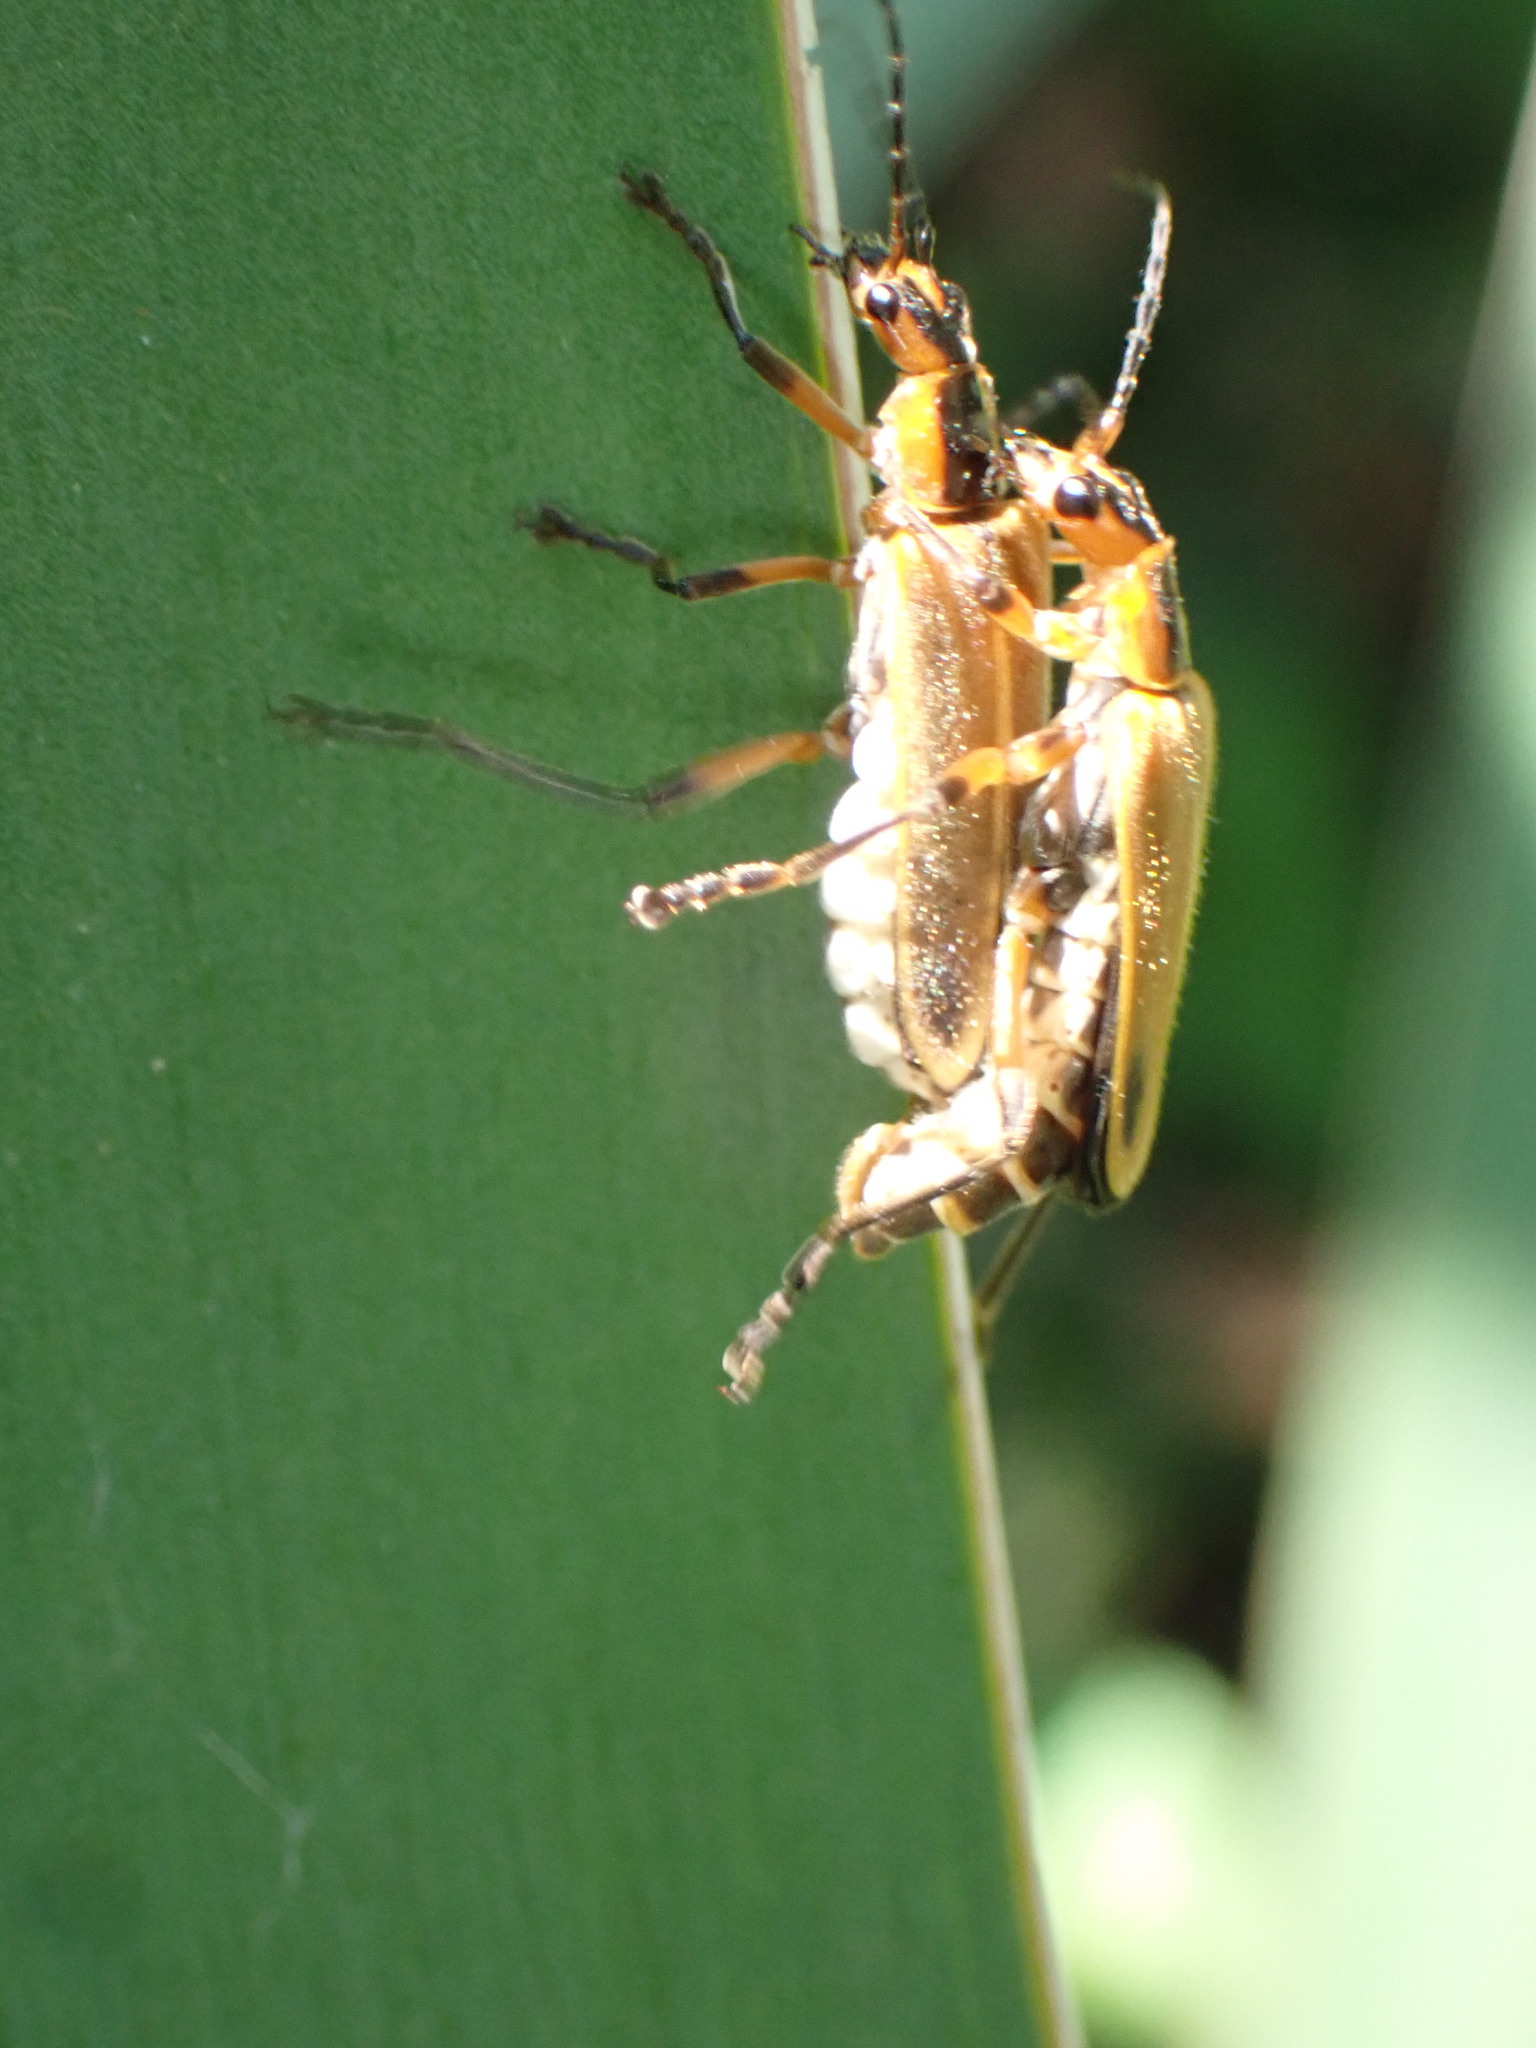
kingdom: Animalia
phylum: Arthropoda
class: Insecta
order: Coleoptera
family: Cantharidae
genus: Chauliognathus
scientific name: Chauliognathus marginatus
